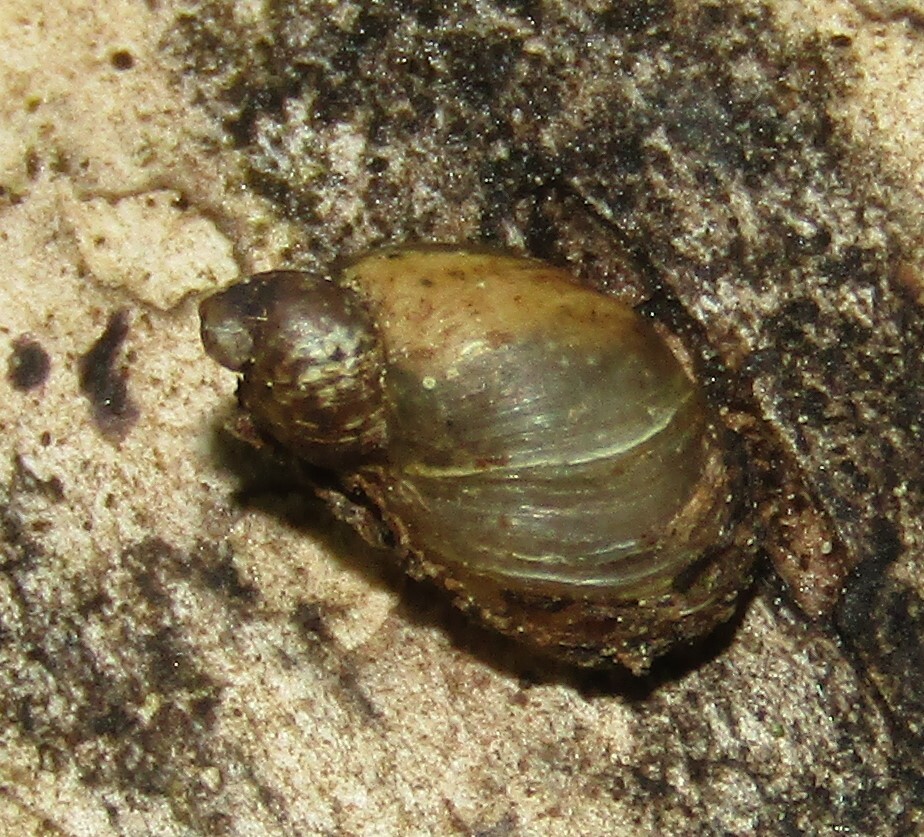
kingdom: Animalia
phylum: Mollusca
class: Gastropoda
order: Stylommatophora
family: Succineidae
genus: Succinella
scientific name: Succinella oblonga
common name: Small amber snail
